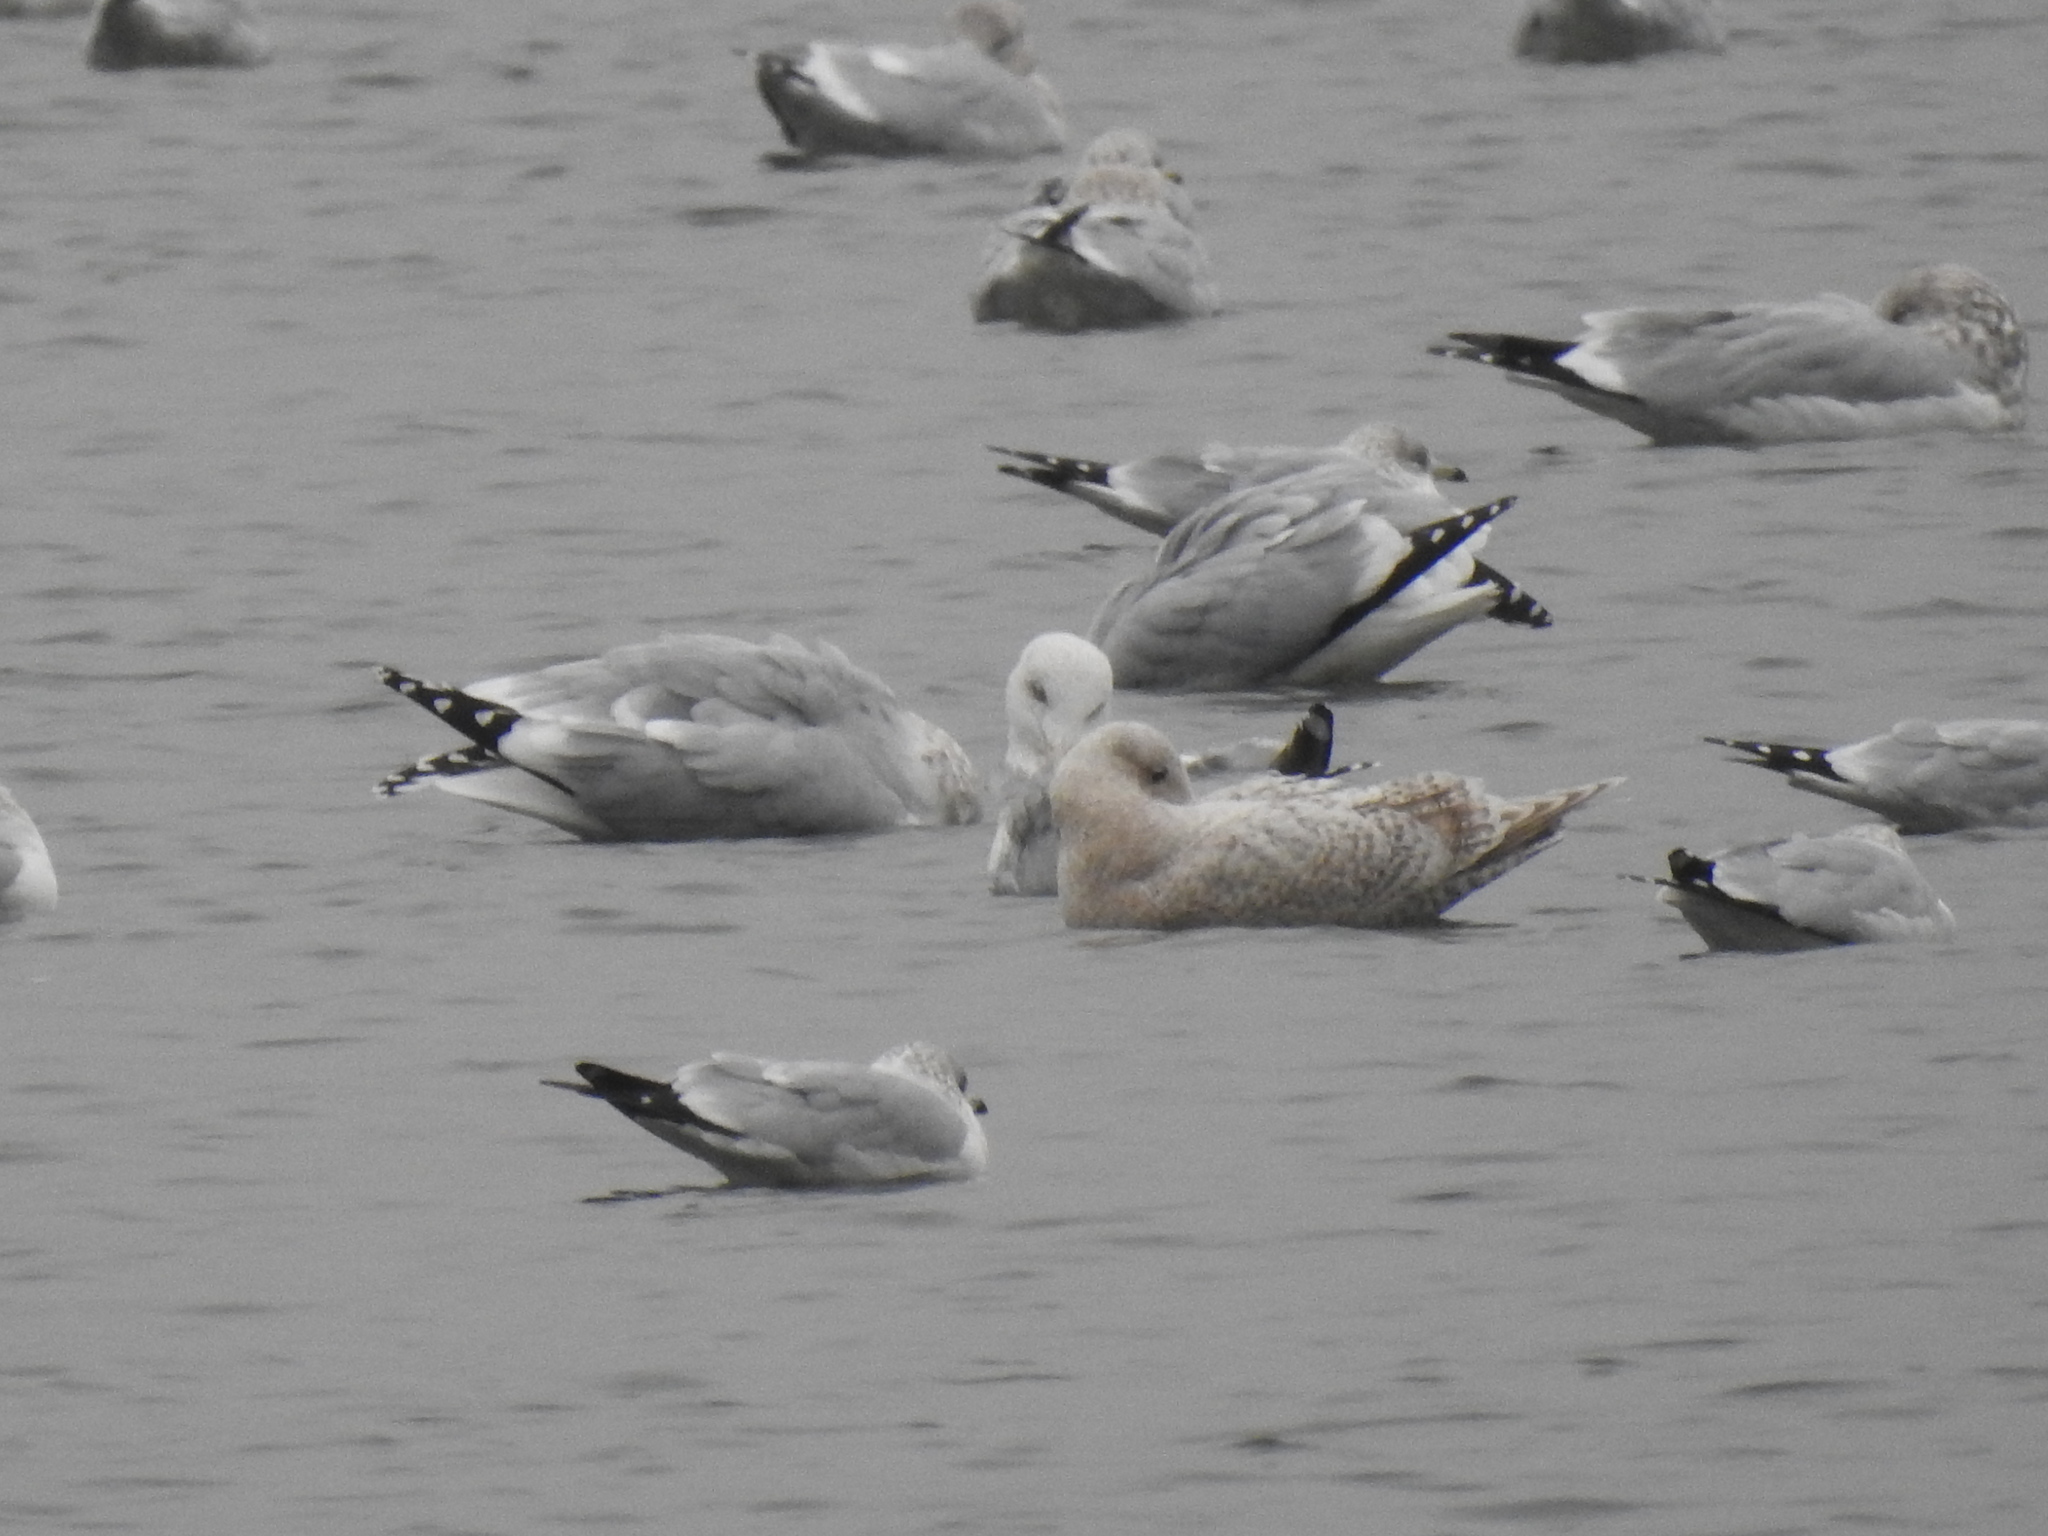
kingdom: Animalia
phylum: Chordata
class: Aves
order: Charadriiformes
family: Laridae
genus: Larus
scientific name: Larus glaucoides
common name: Iceland gull
